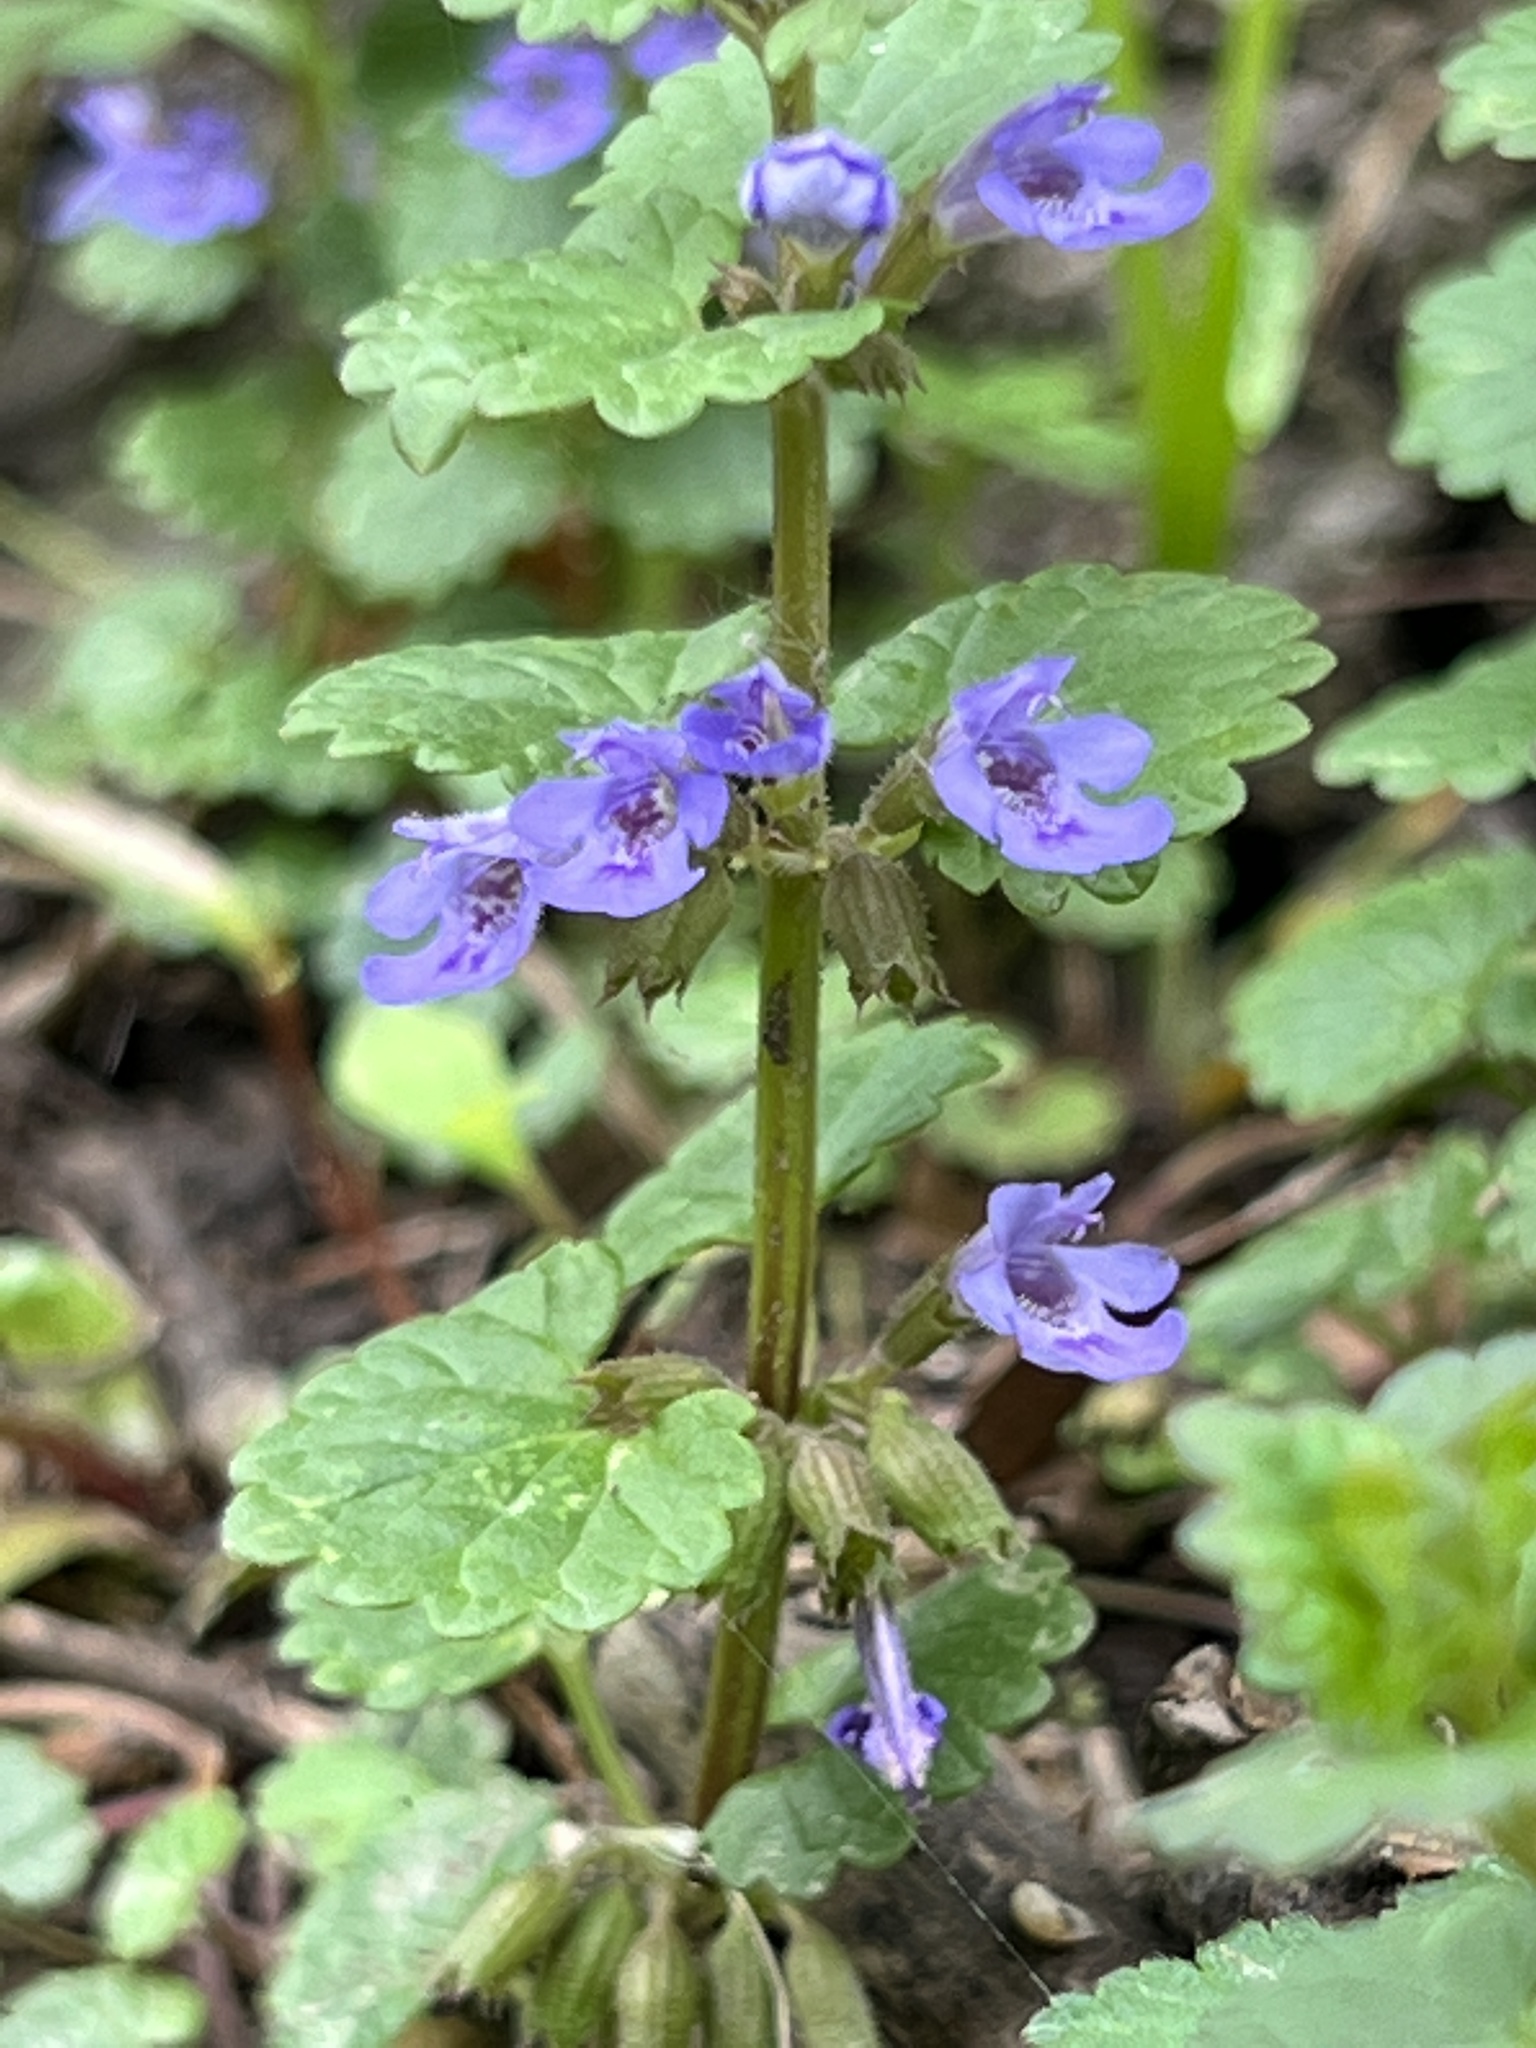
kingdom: Plantae
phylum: Tracheophyta
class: Magnoliopsida
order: Lamiales
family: Lamiaceae
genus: Glechoma
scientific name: Glechoma hederacea
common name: Ground ivy
